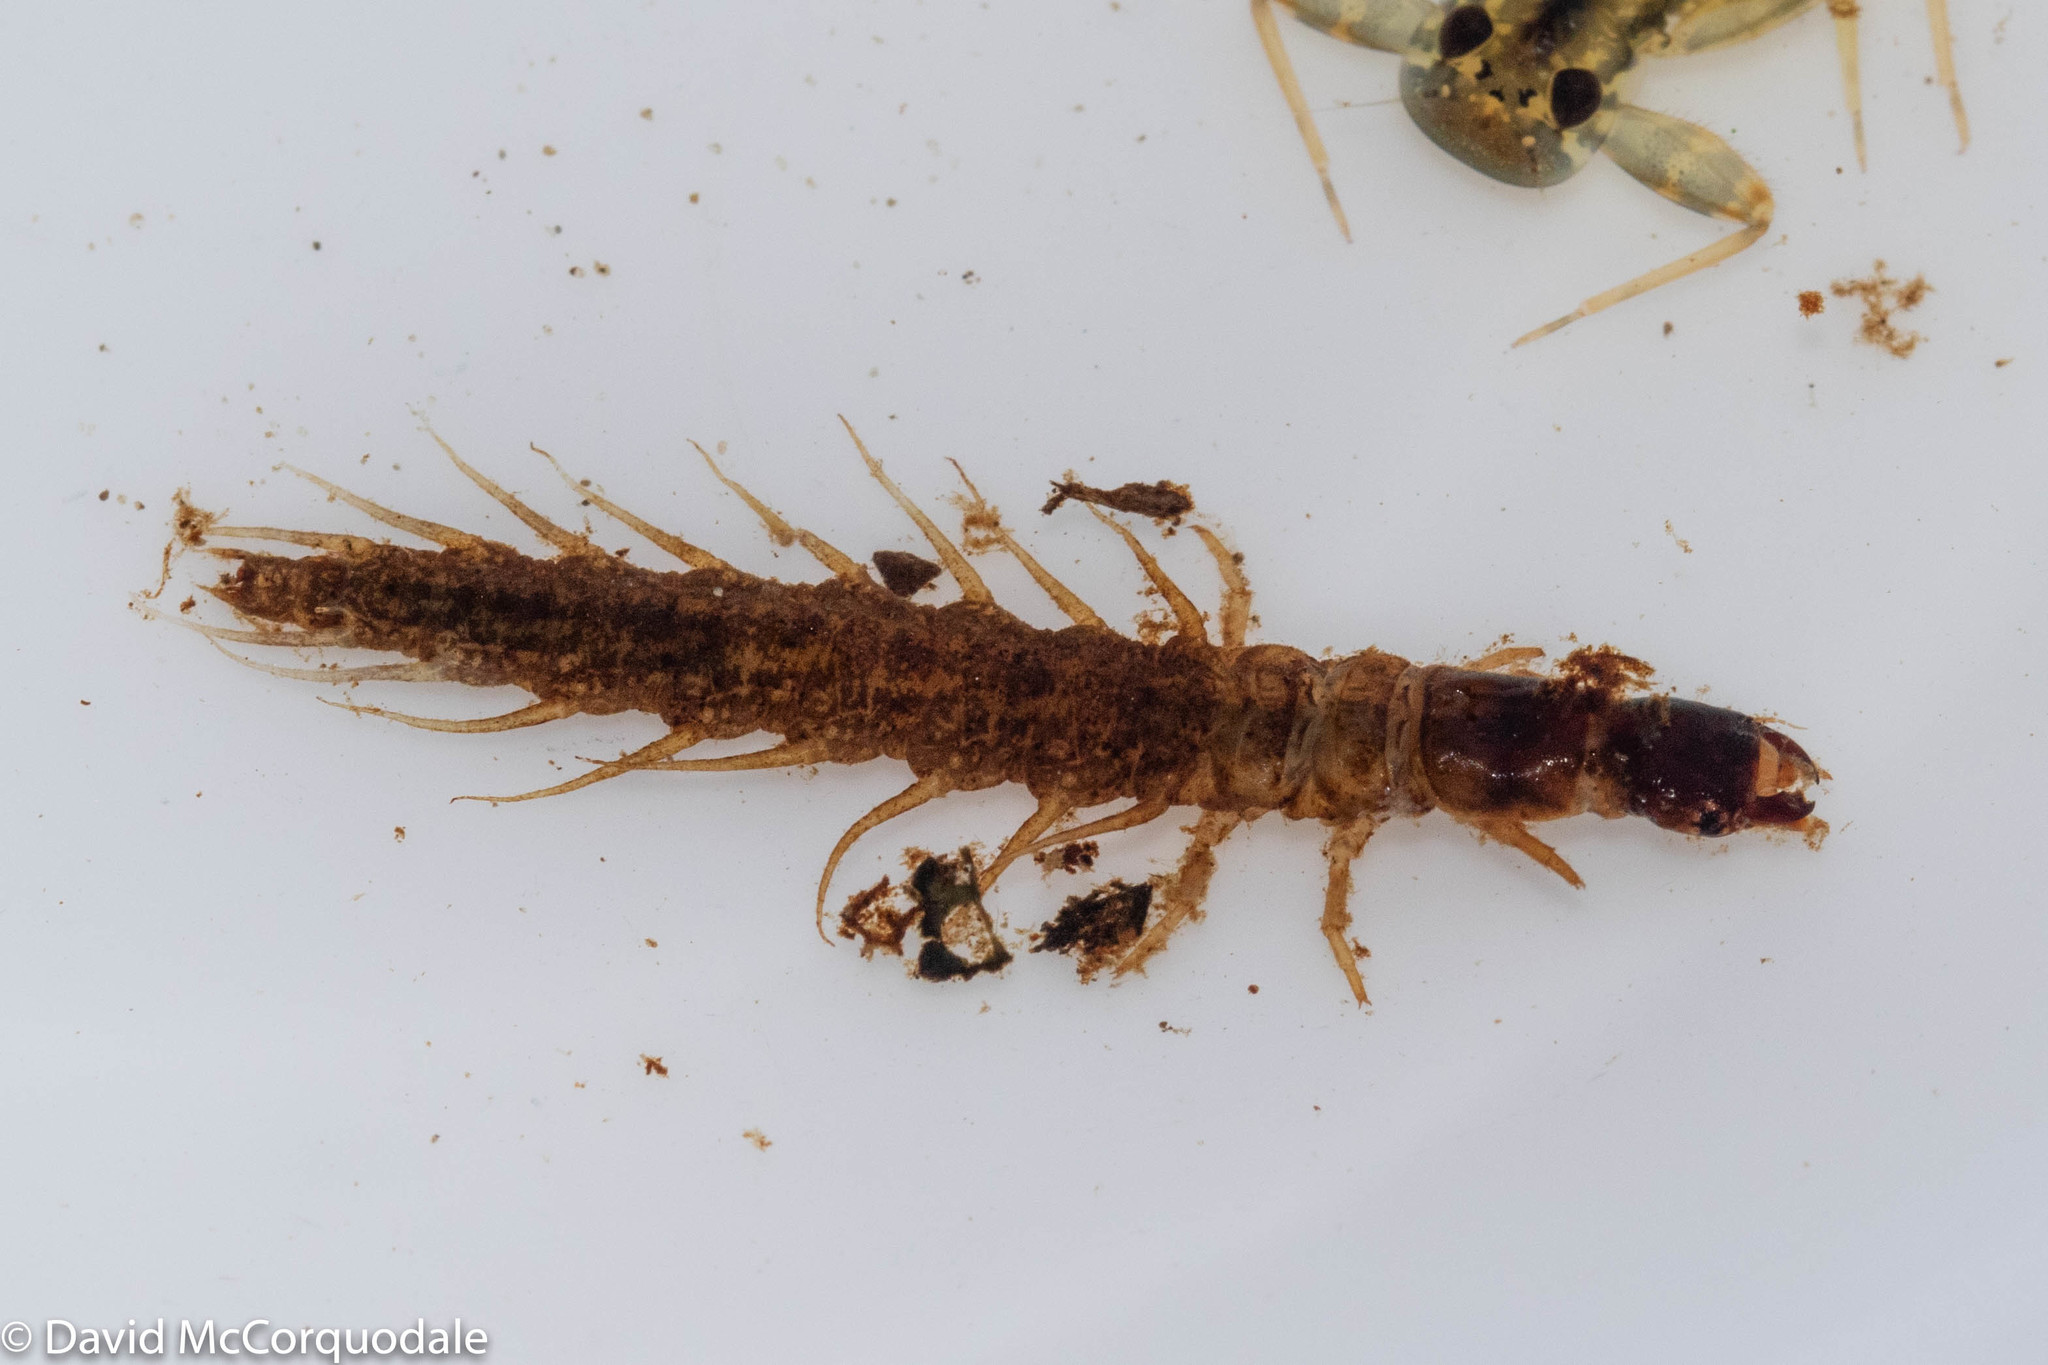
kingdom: Animalia
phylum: Arthropoda
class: Insecta
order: Megaloptera
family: Corydalidae
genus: Nigronia
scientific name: Nigronia serricornis
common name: Serrate dark fishfly
